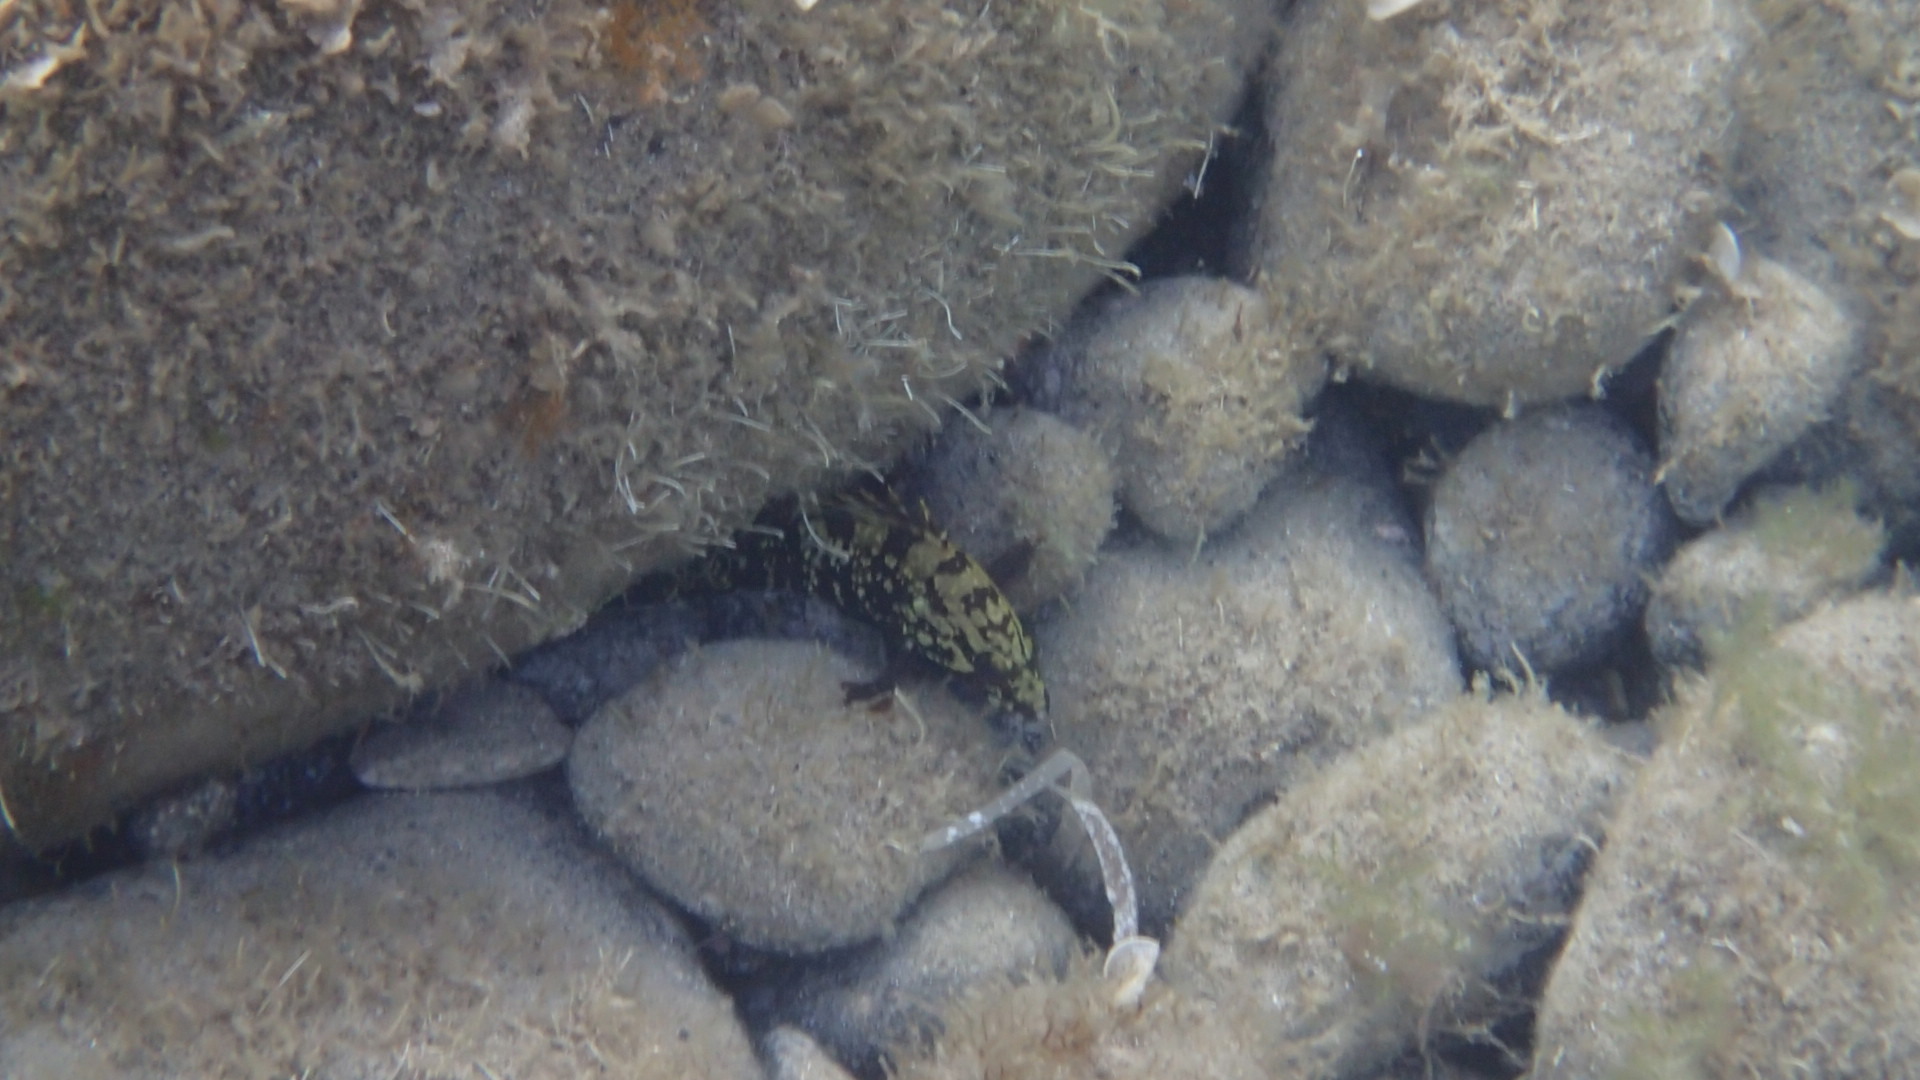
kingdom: Animalia
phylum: Chordata
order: Perciformes
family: Serranidae
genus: Epinephelus
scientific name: Epinephelus marginatus
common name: Dusky grouper
